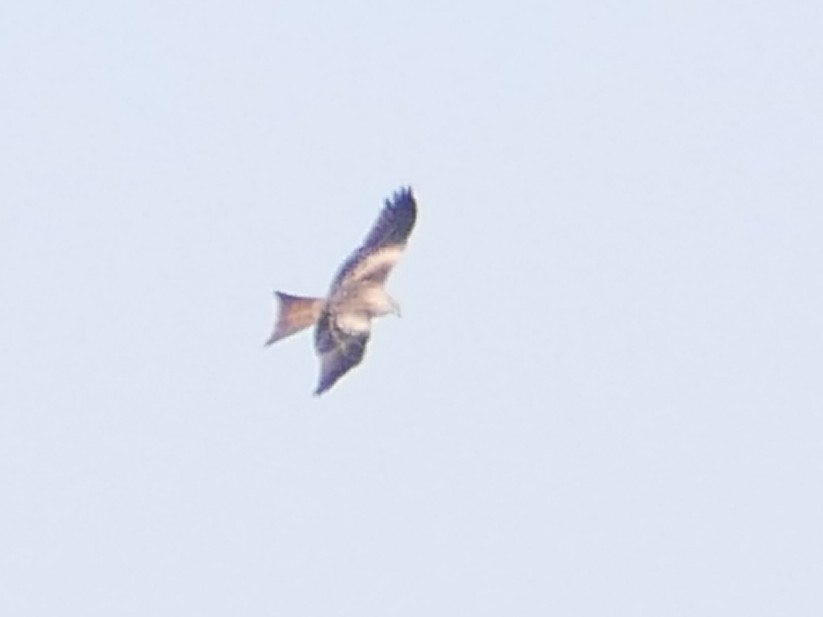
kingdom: Animalia
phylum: Chordata
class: Aves
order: Accipitriformes
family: Accipitridae
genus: Milvus
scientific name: Milvus milvus
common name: Red kite
